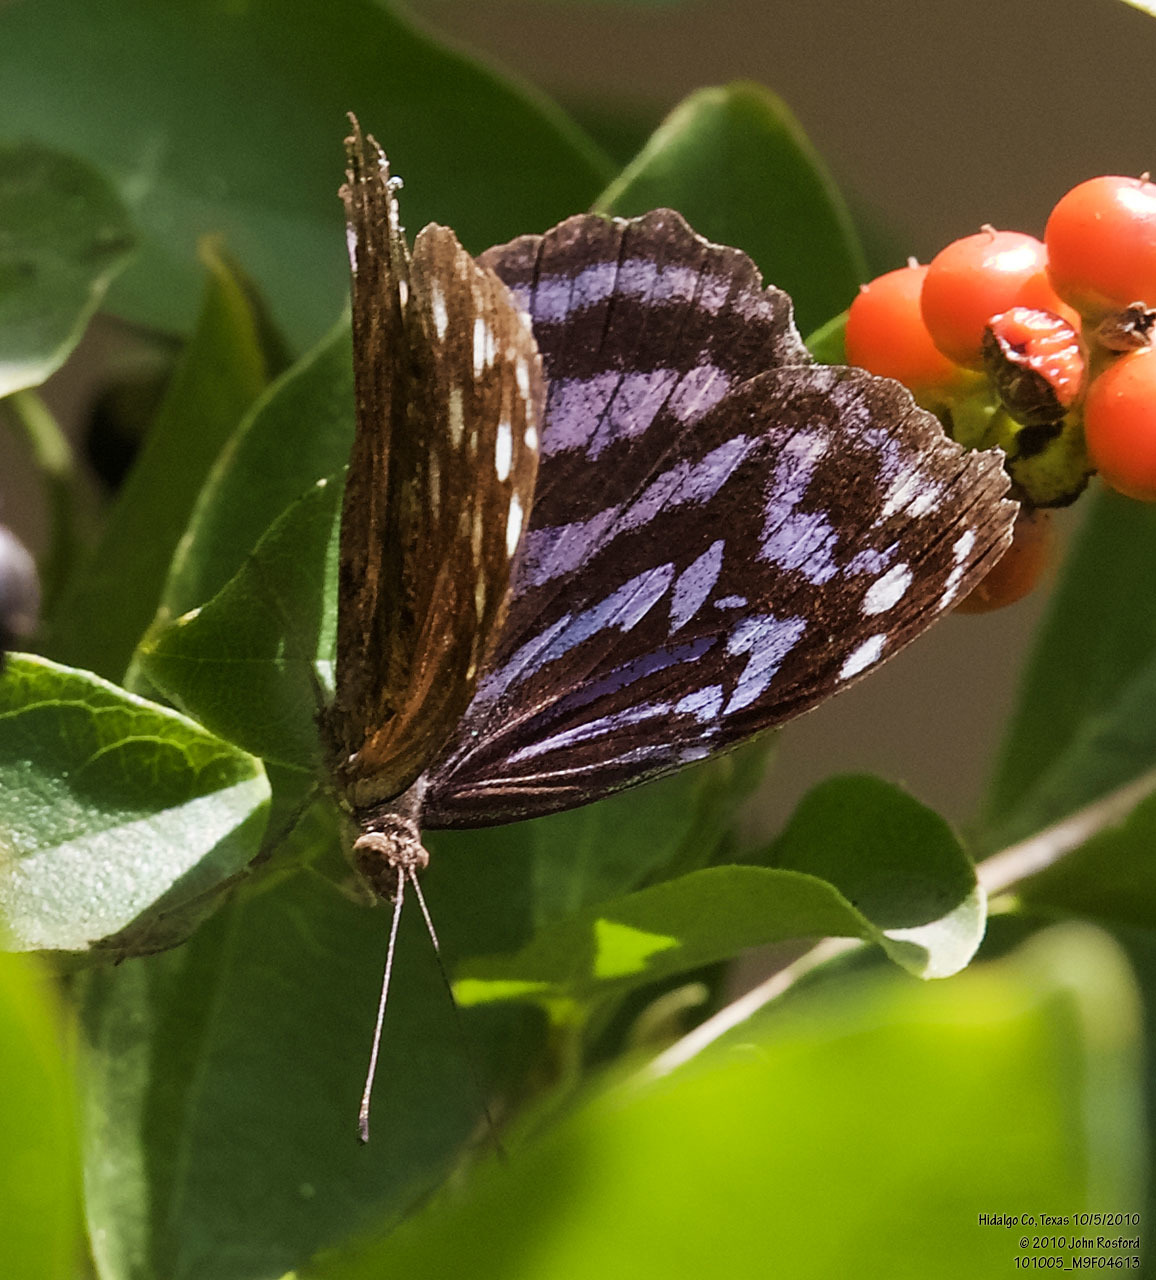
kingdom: Animalia
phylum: Arthropoda
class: Insecta
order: Lepidoptera
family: Nymphalidae
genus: Myscelia
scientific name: Myscelia ethusa
